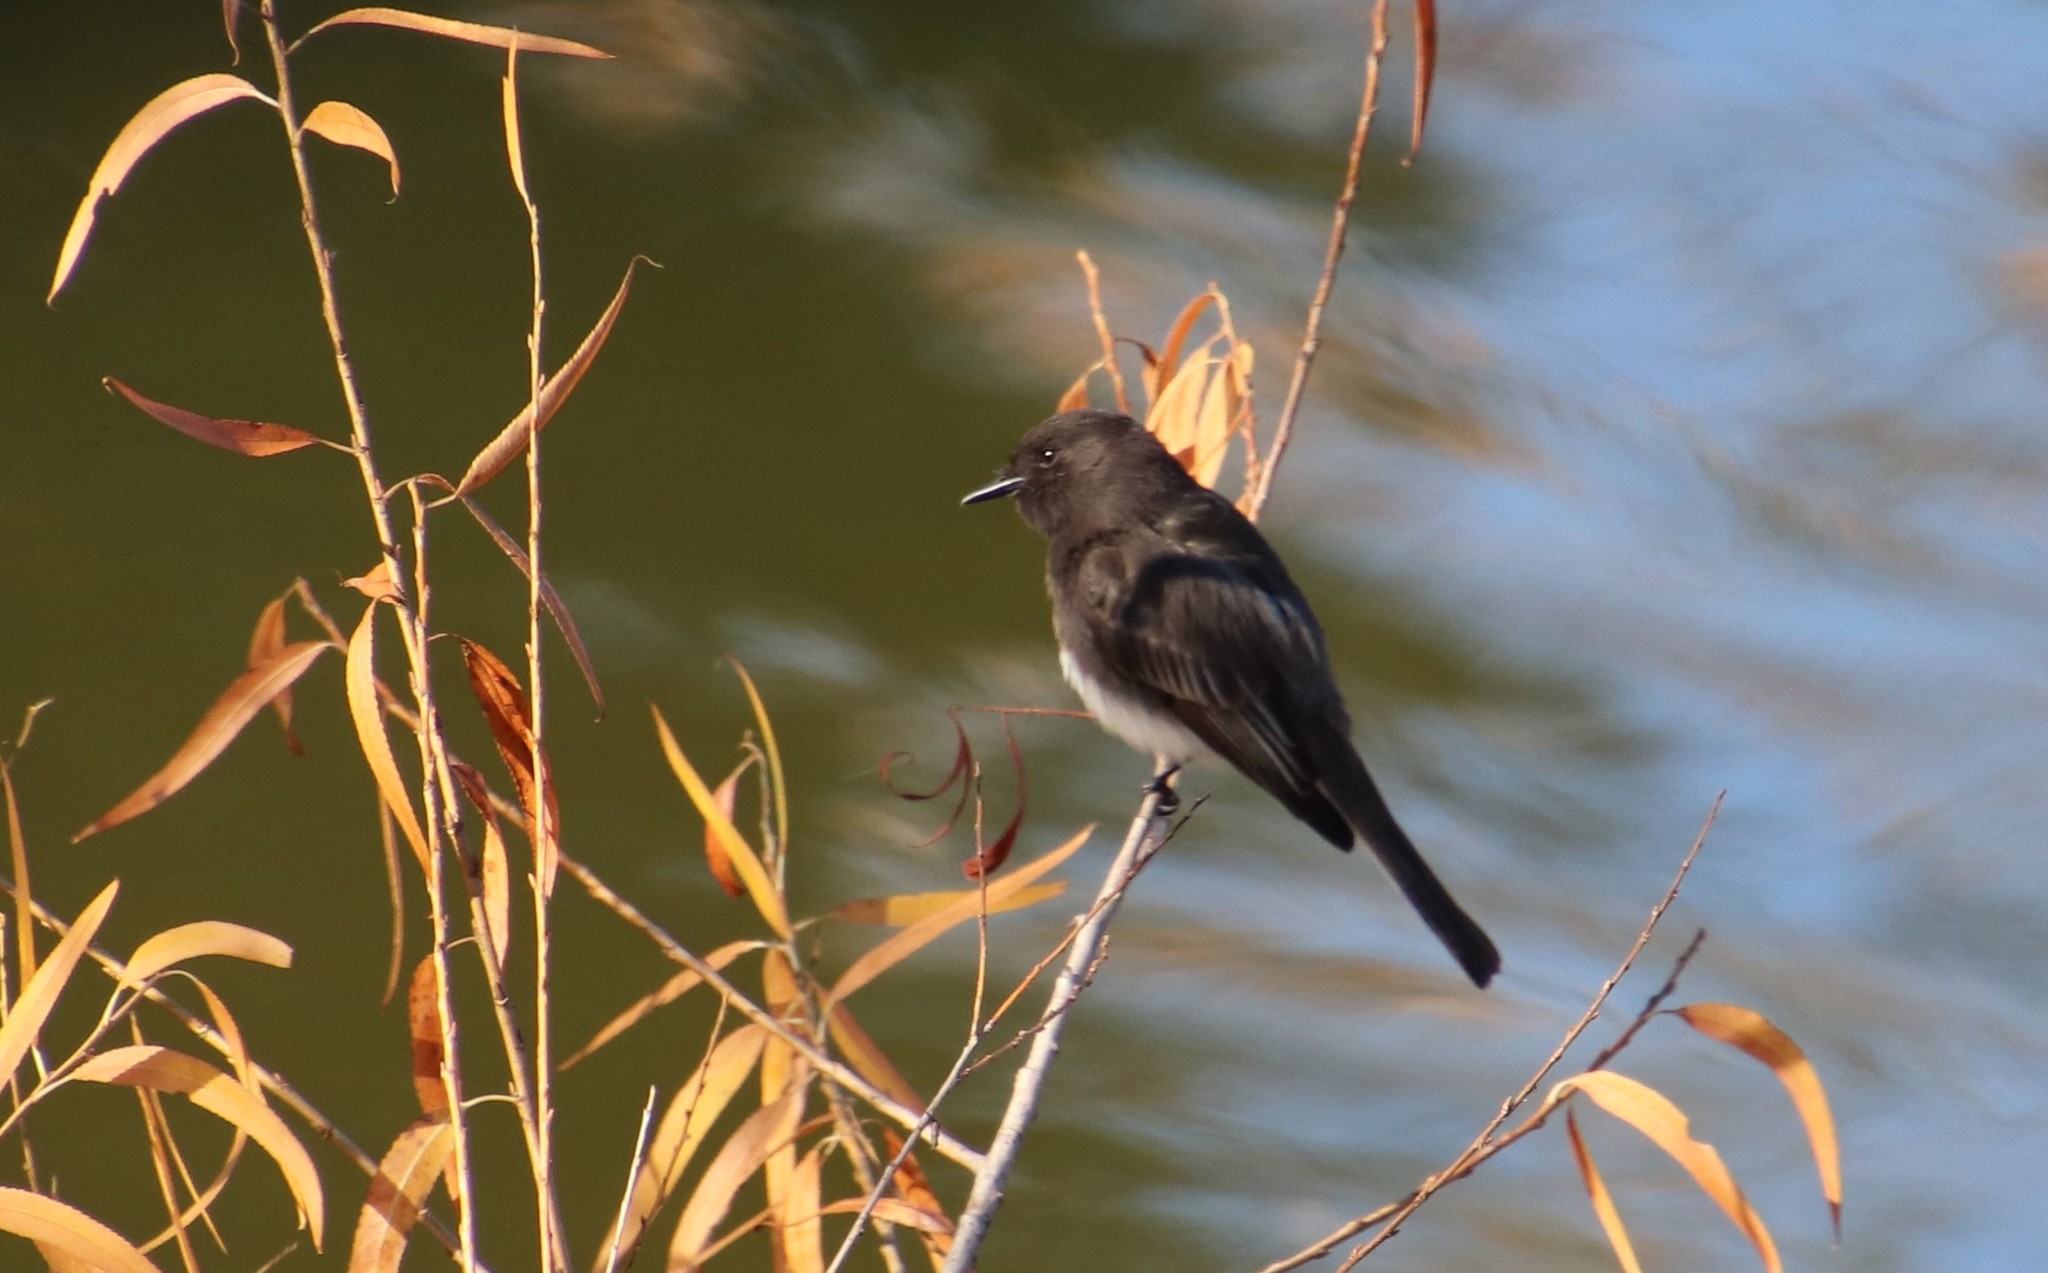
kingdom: Animalia
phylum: Chordata
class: Aves
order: Passeriformes
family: Tyrannidae
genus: Sayornis
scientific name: Sayornis nigricans
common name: Black phoebe
